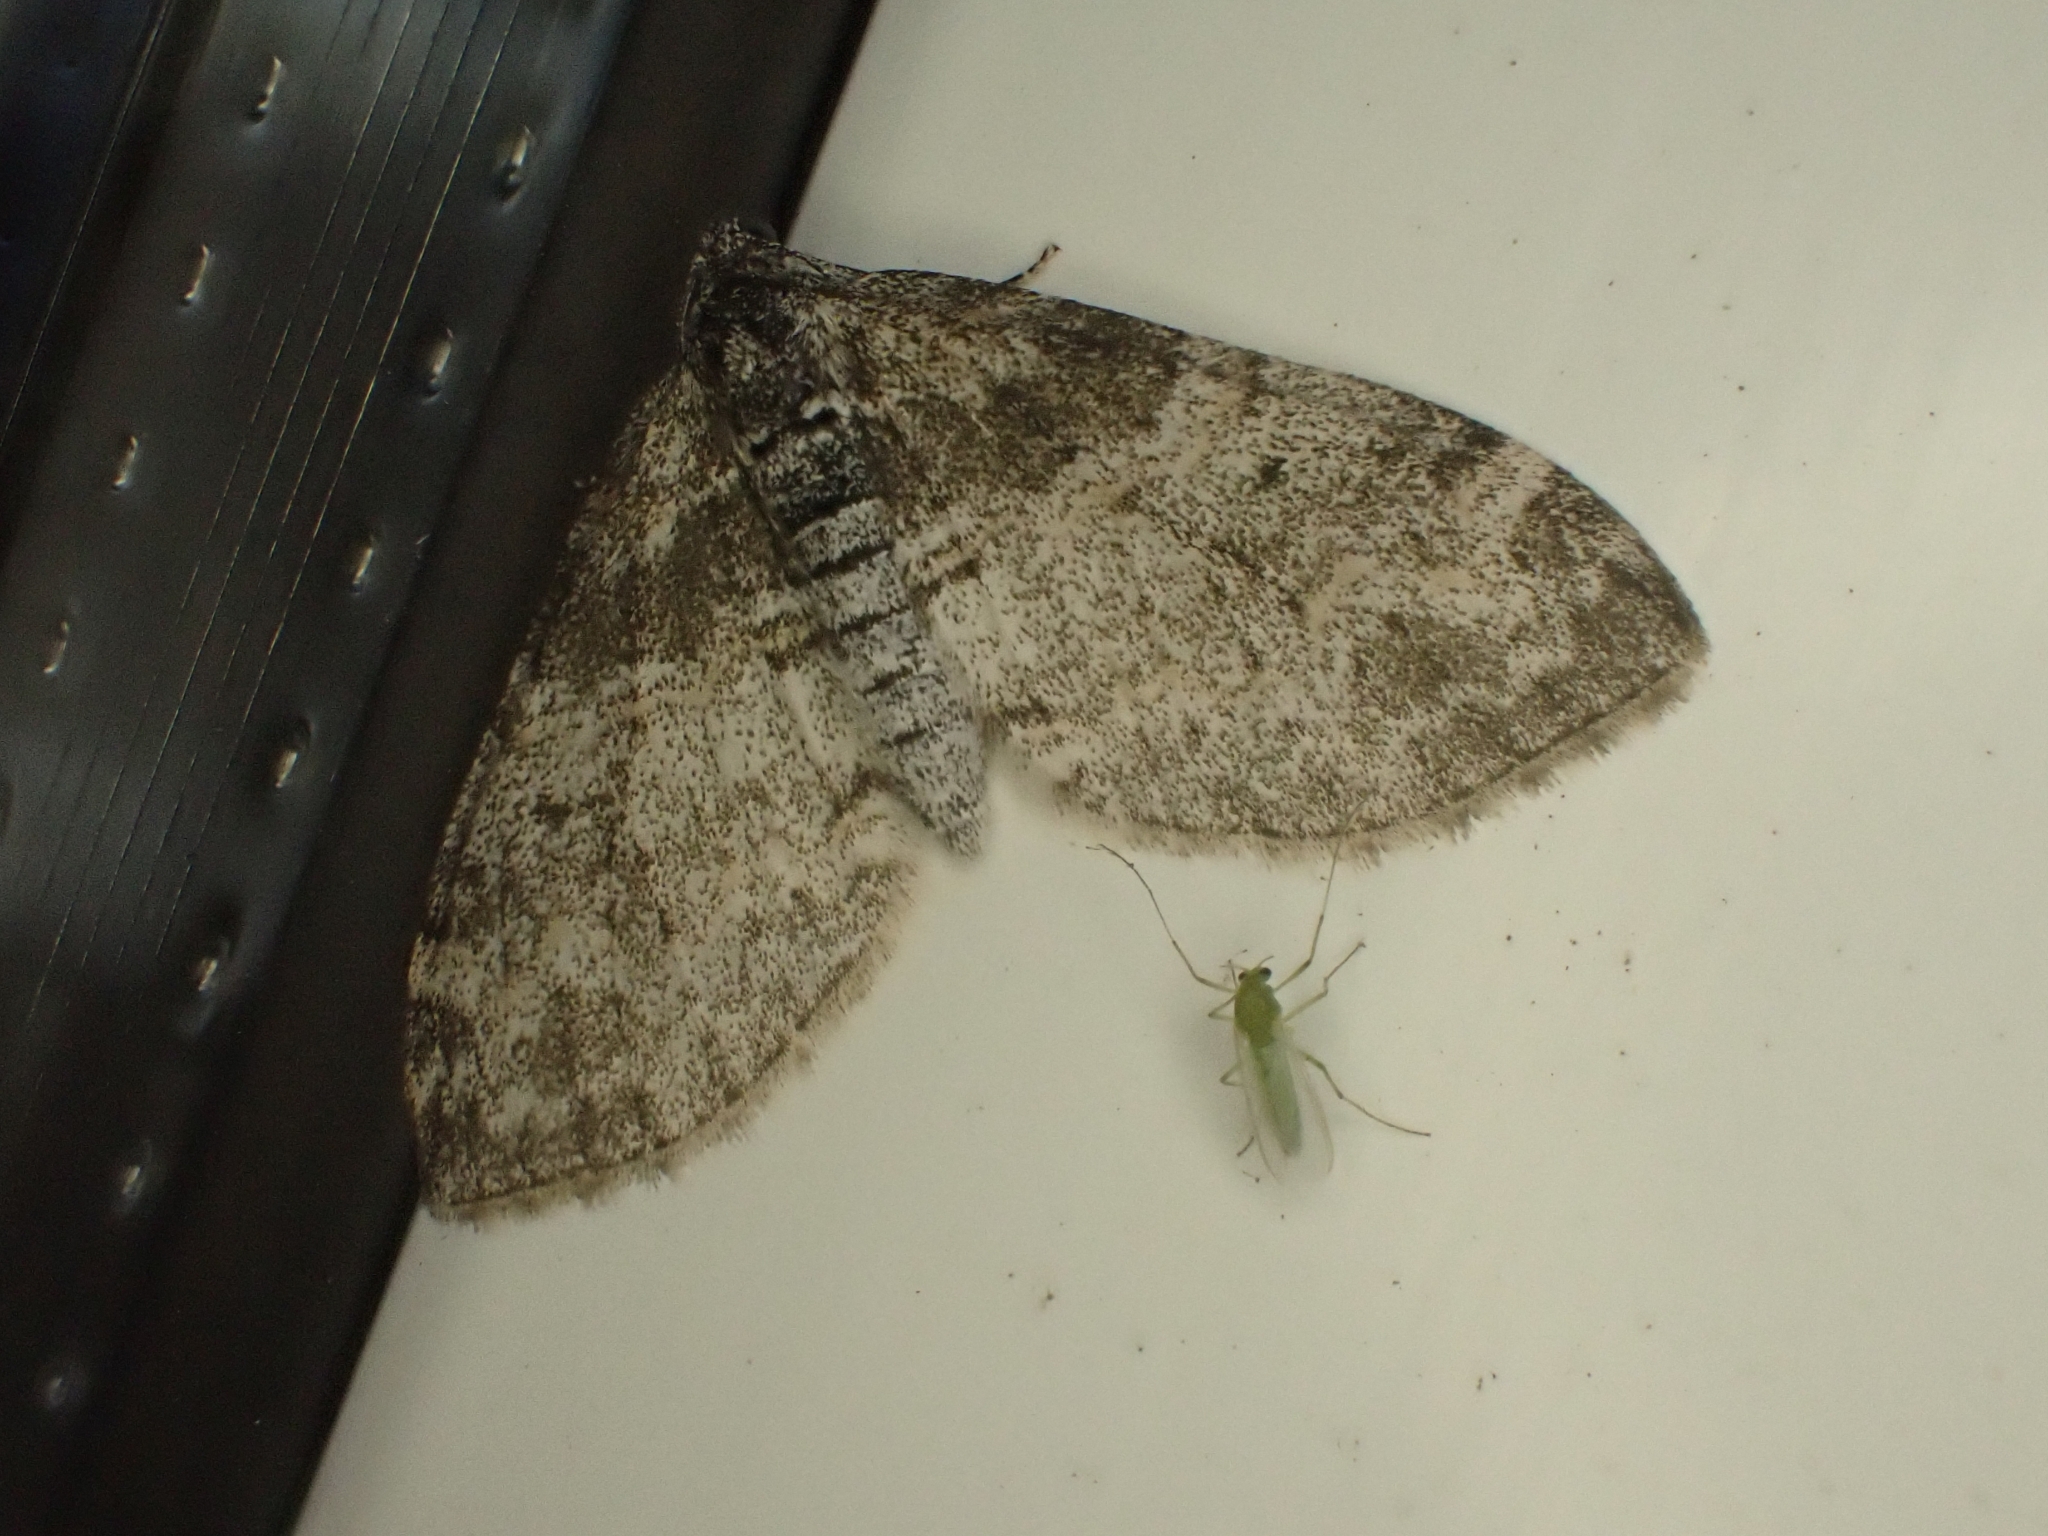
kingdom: Animalia
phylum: Arthropoda
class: Insecta
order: Lepidoptera
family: Geometridae
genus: Lobophora
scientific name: Lobophora halterata
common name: Seraphim
